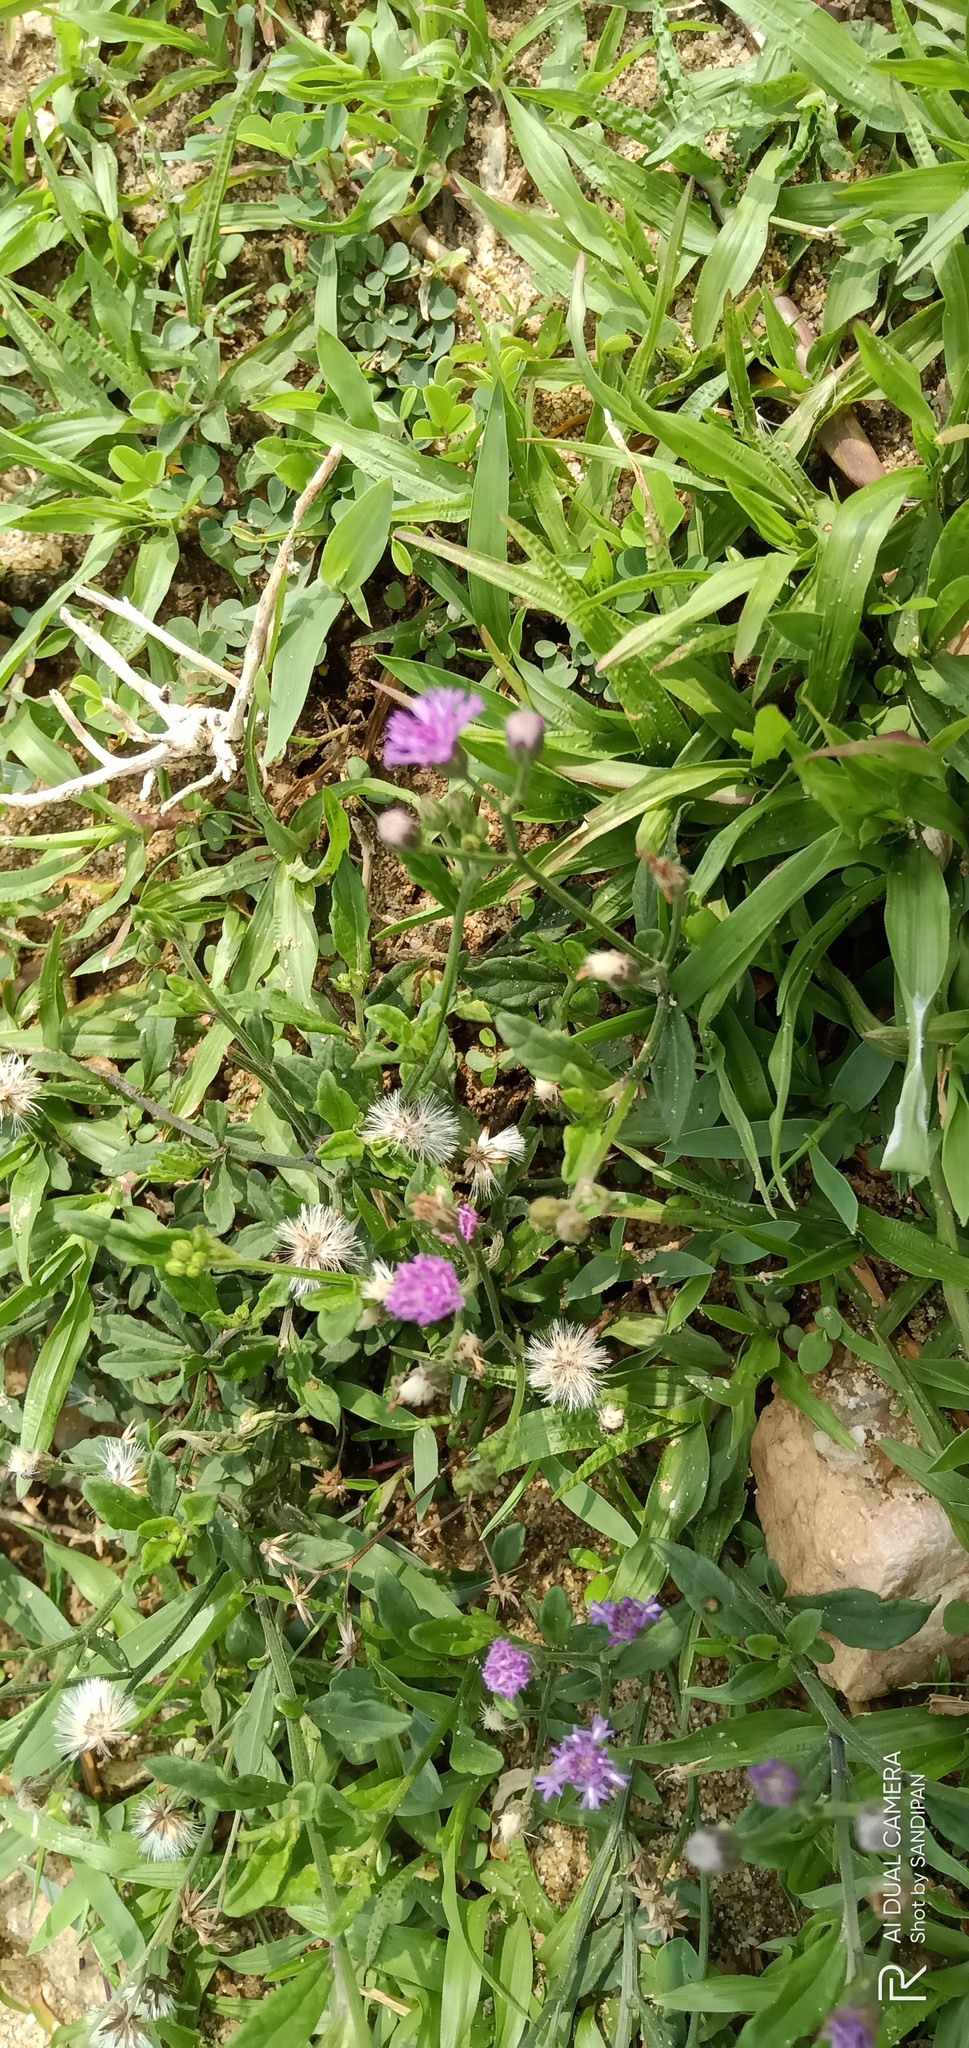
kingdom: Plantae
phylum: Tracheophyta
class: Magnoliopsida
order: Asterales
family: Asteraceae
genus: Cyanthillium
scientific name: Cyanthillium cinereum
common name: Little ironweed
